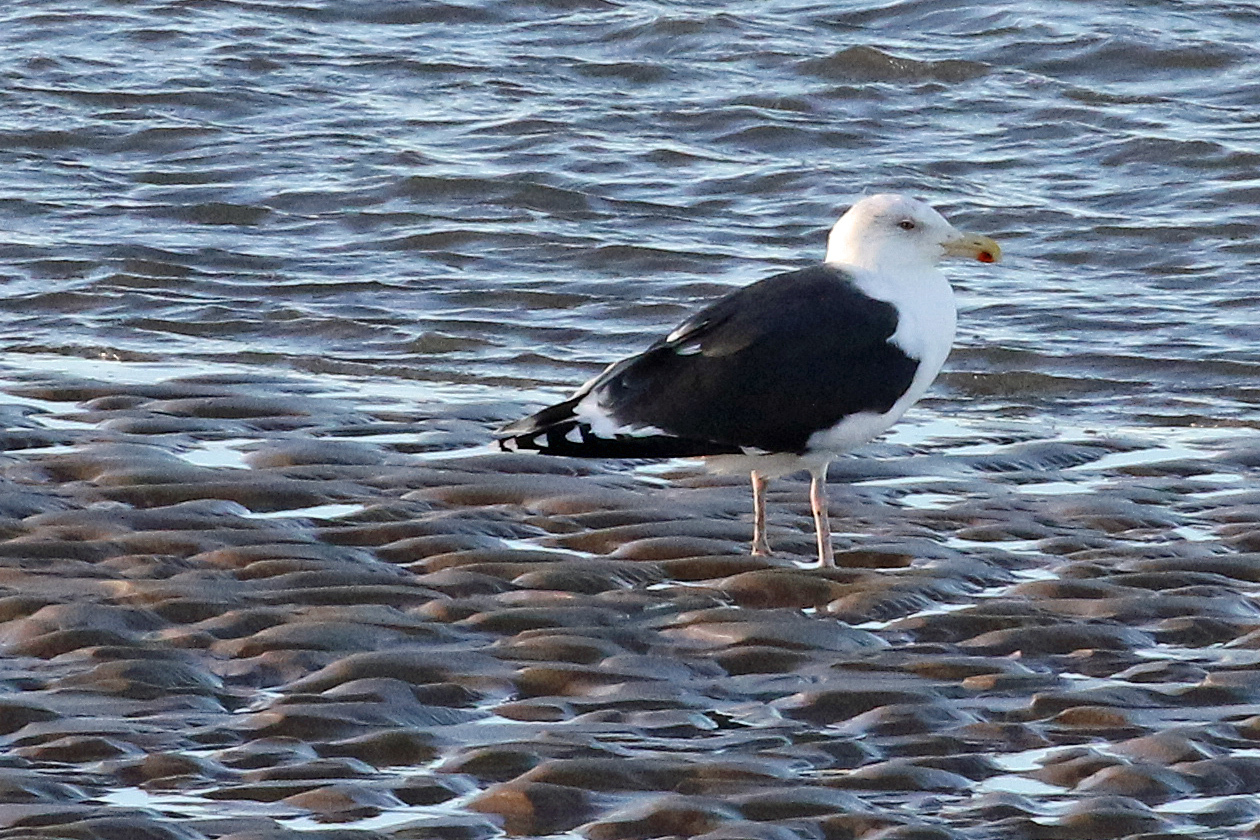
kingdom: Animalia
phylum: Chordata
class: Aves
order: Charadriiformes
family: Laridae
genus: Larus
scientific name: Larus marinus
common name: Great black-backed gull
